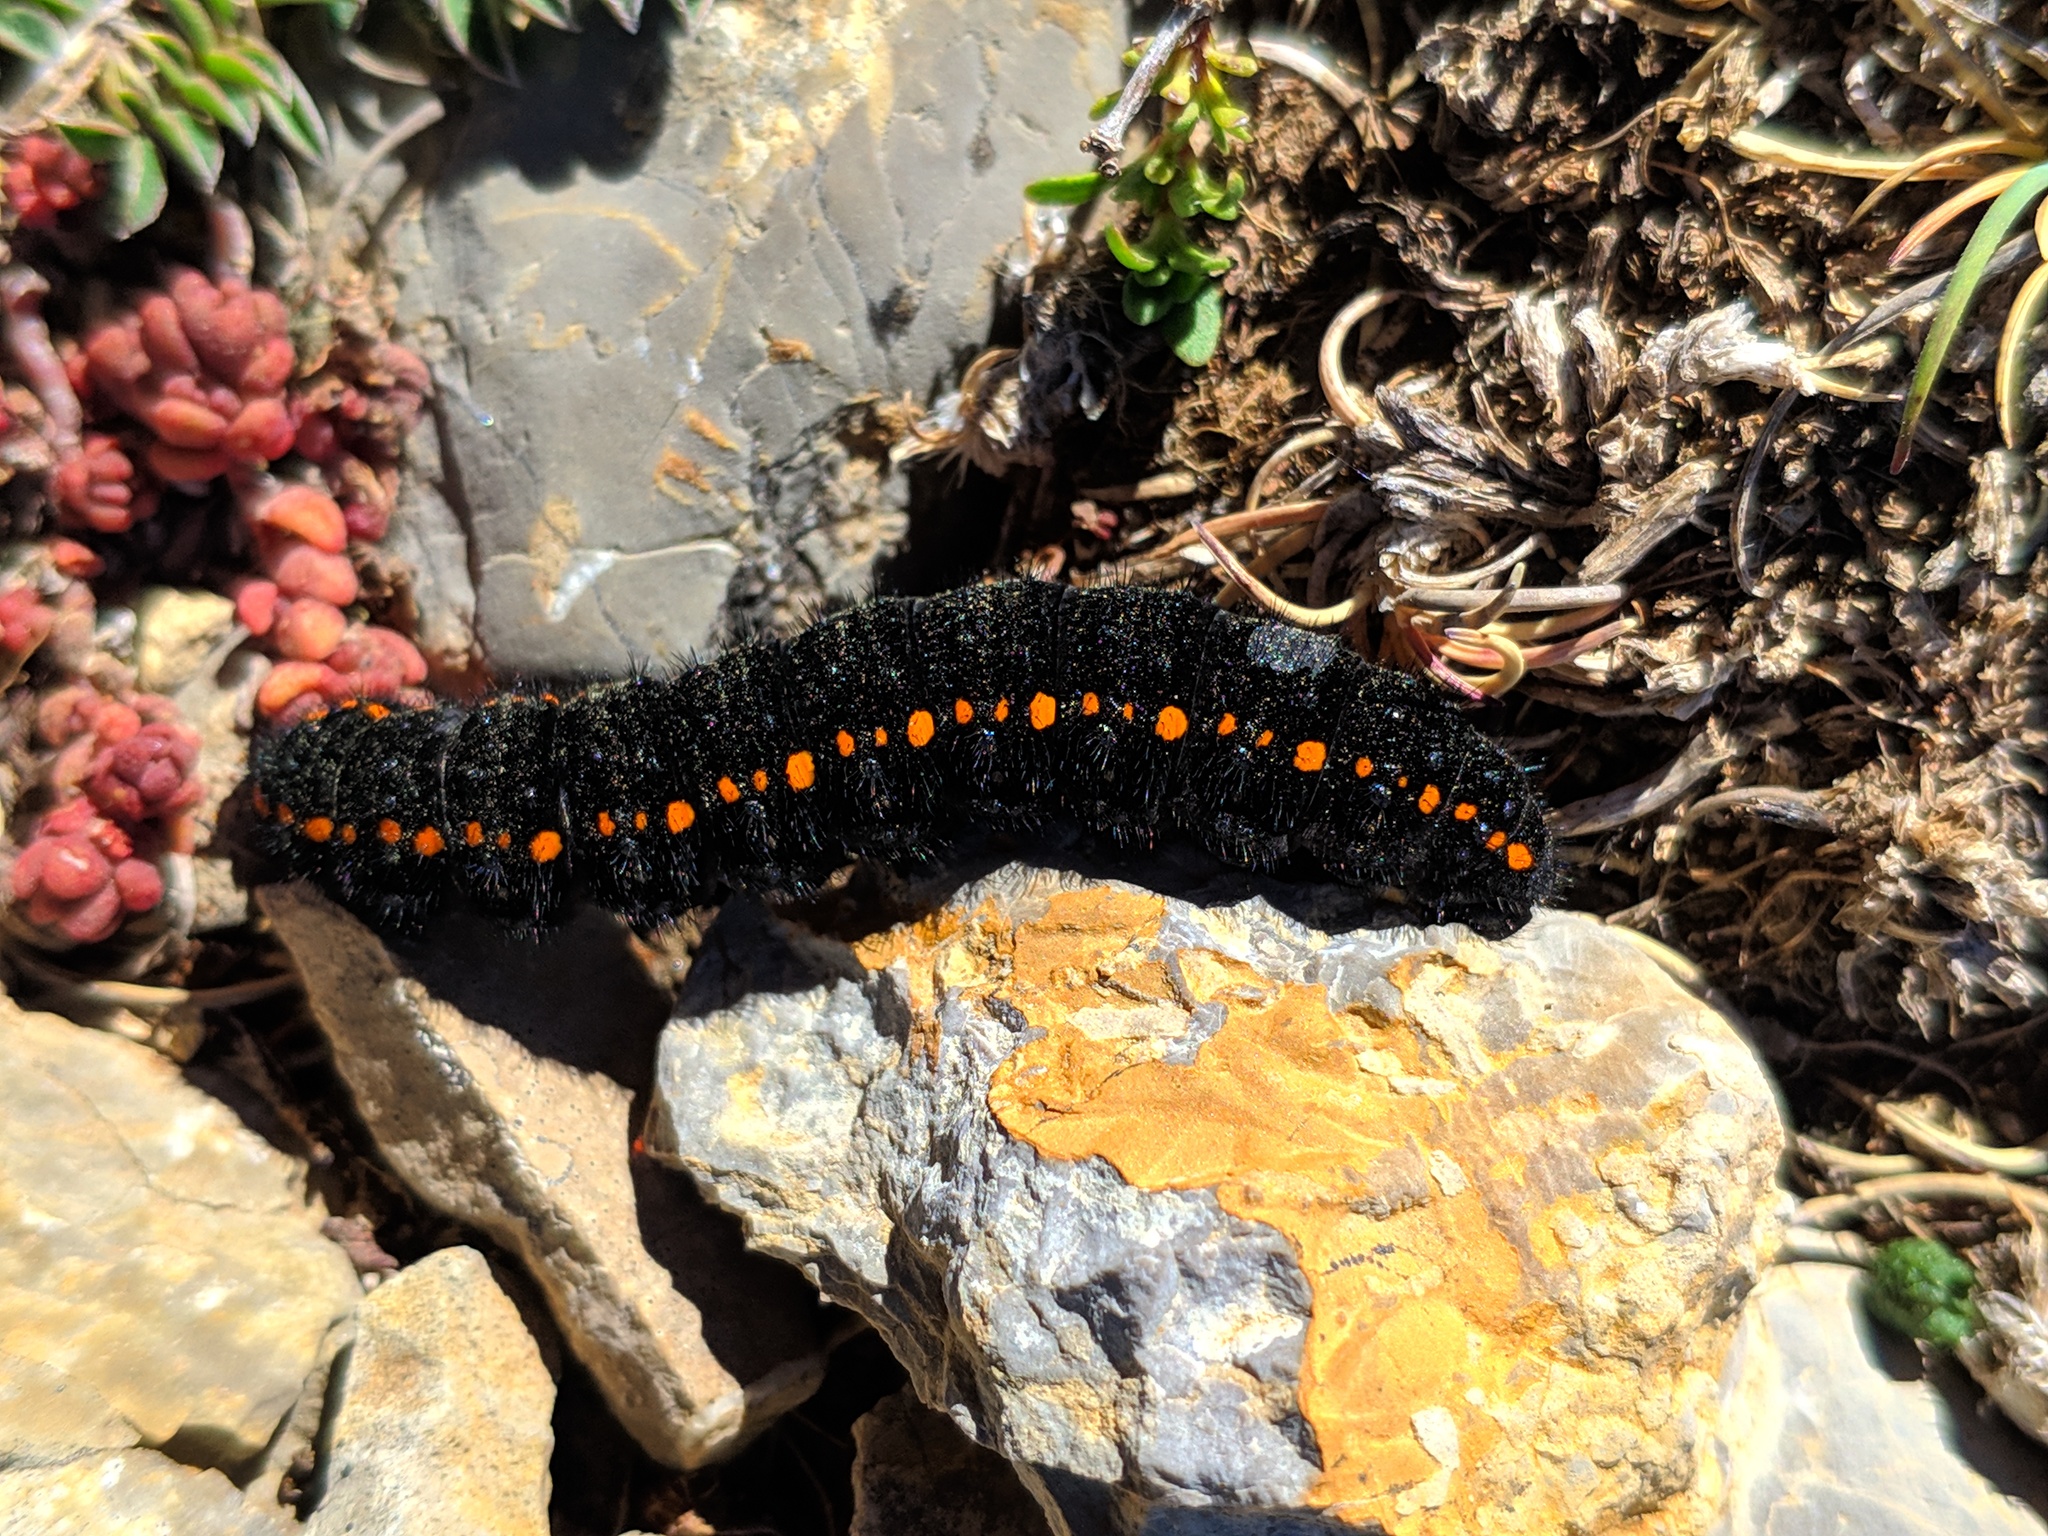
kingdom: Animalia
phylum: Arthropoda
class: Insecta
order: Lepidoptera
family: Papilionidae
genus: Parnassius
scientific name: Parnassius apollo
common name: Apollo
